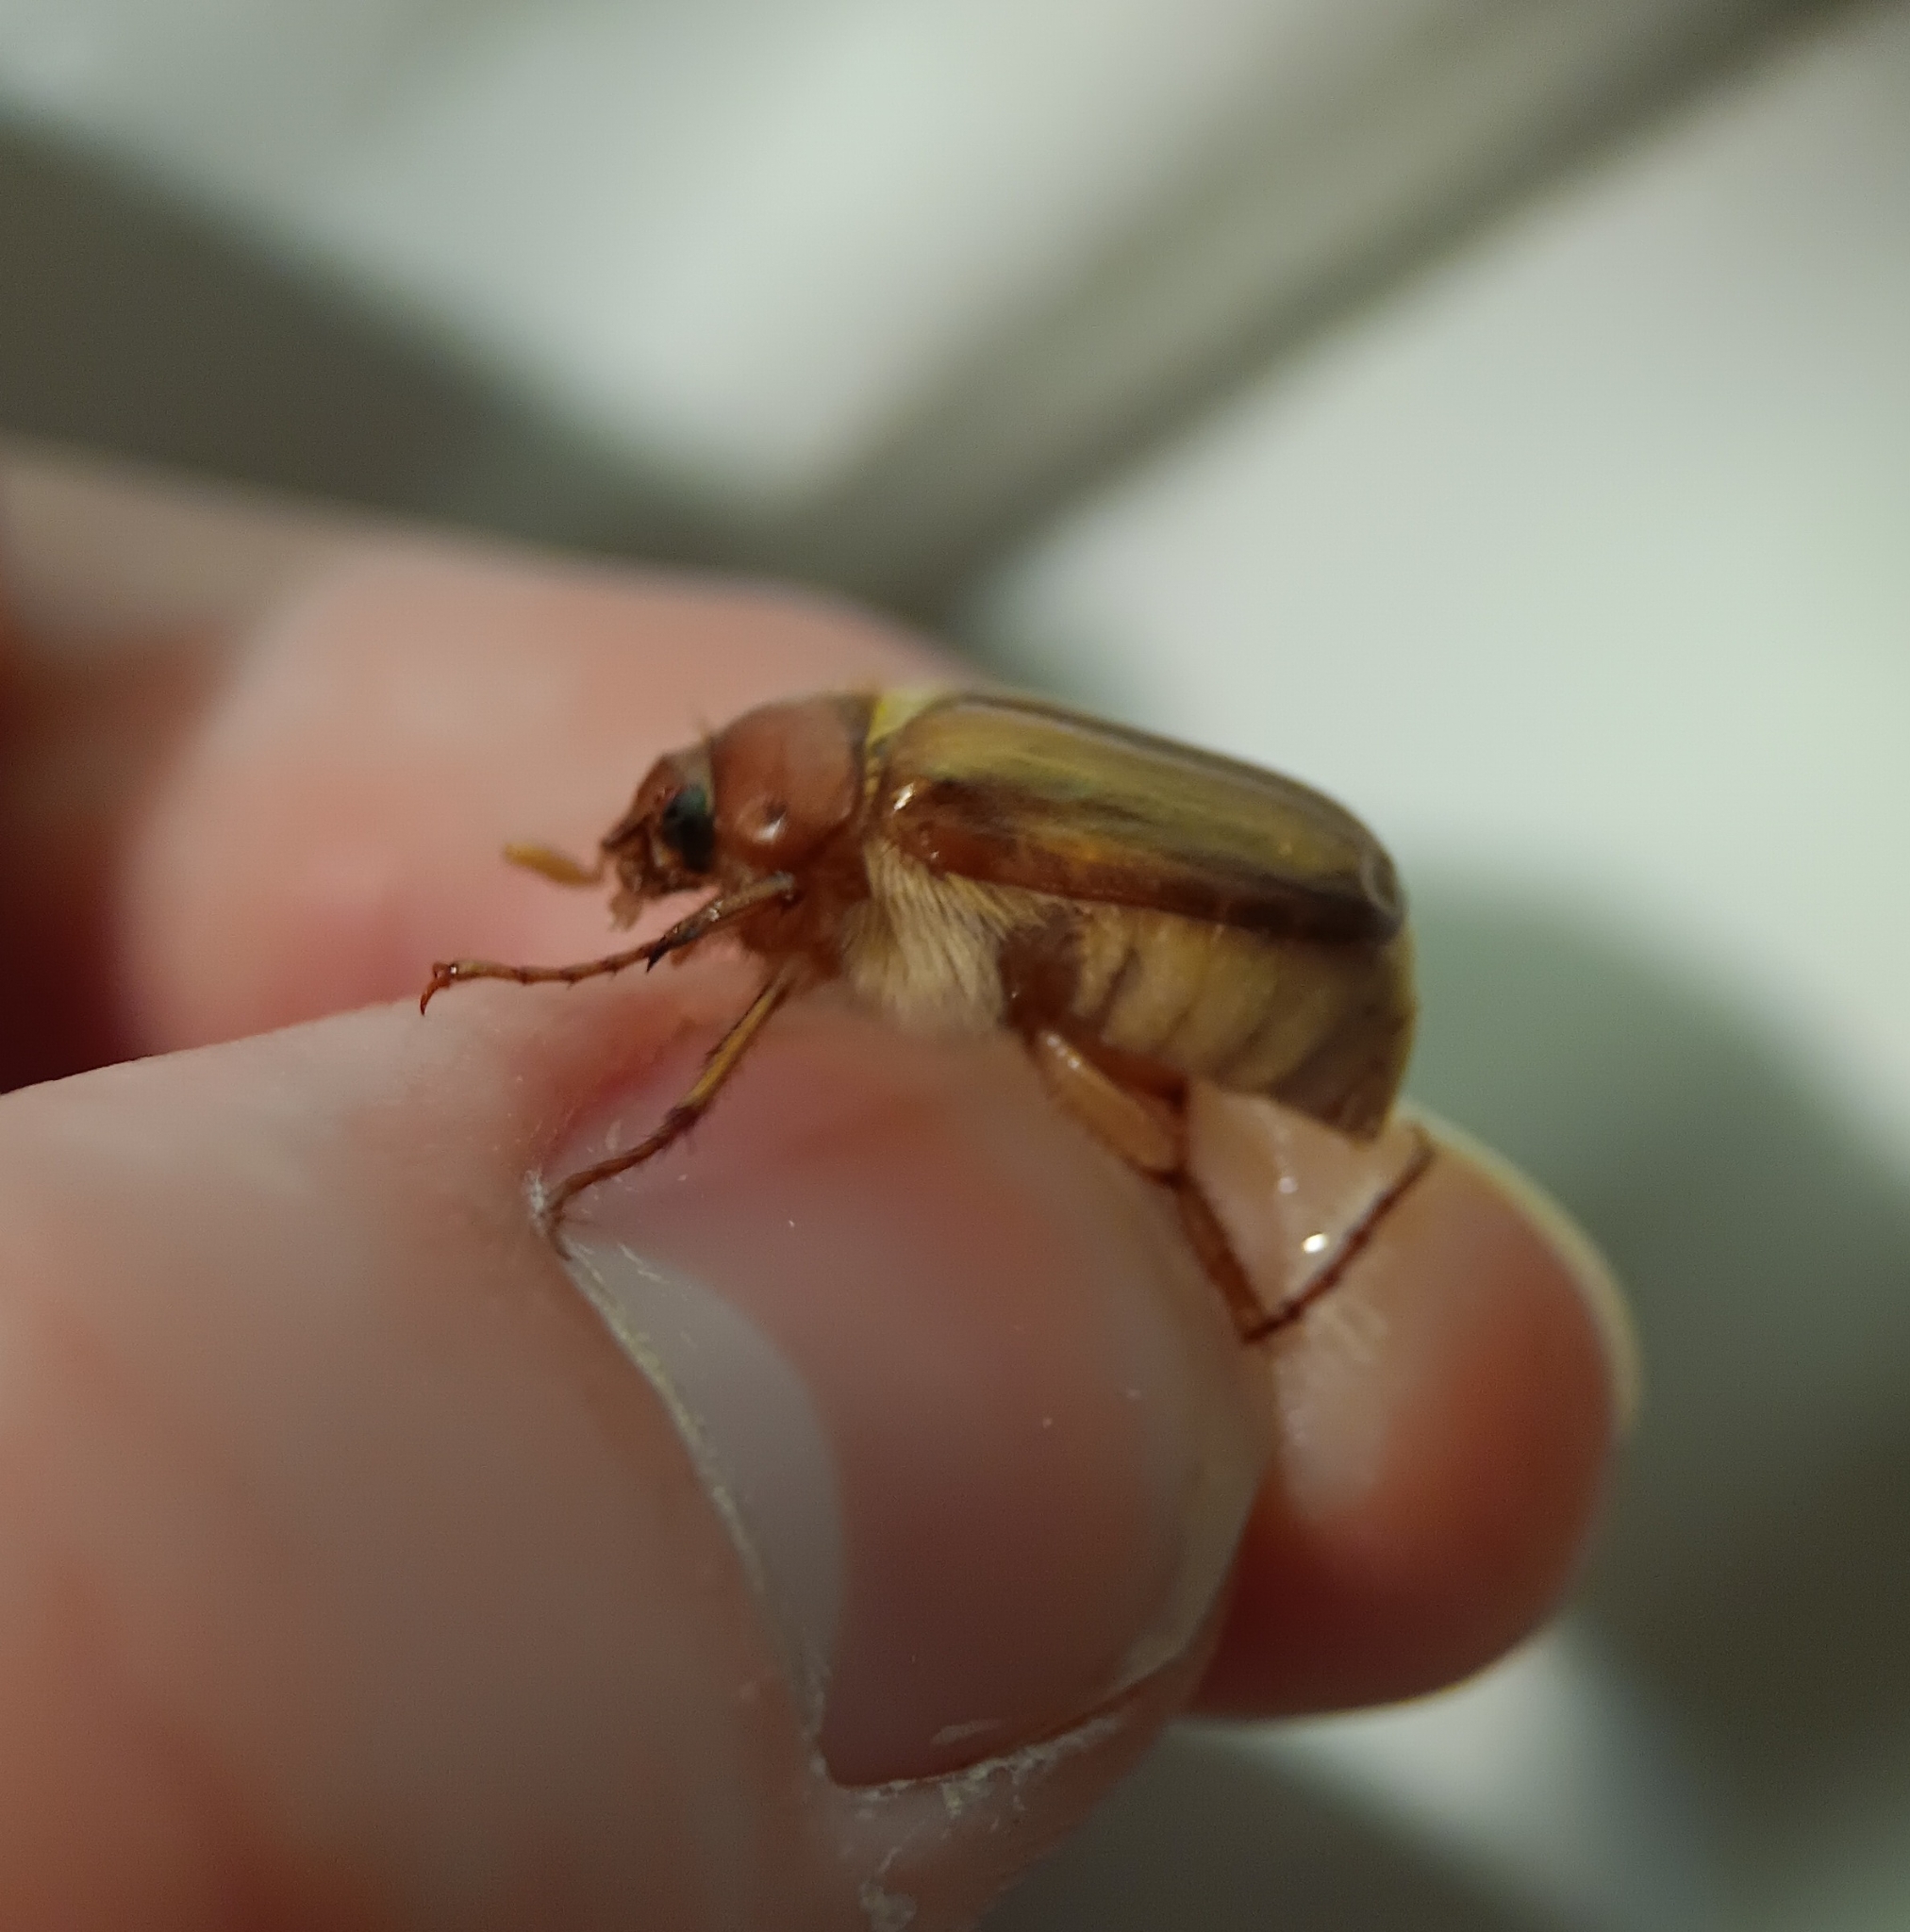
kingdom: Animalia
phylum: Arthropoda
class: Insecta
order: Coleoptera
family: Scarabaeidae
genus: Amphimallon
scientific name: Amphimallon majale
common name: European chafer
